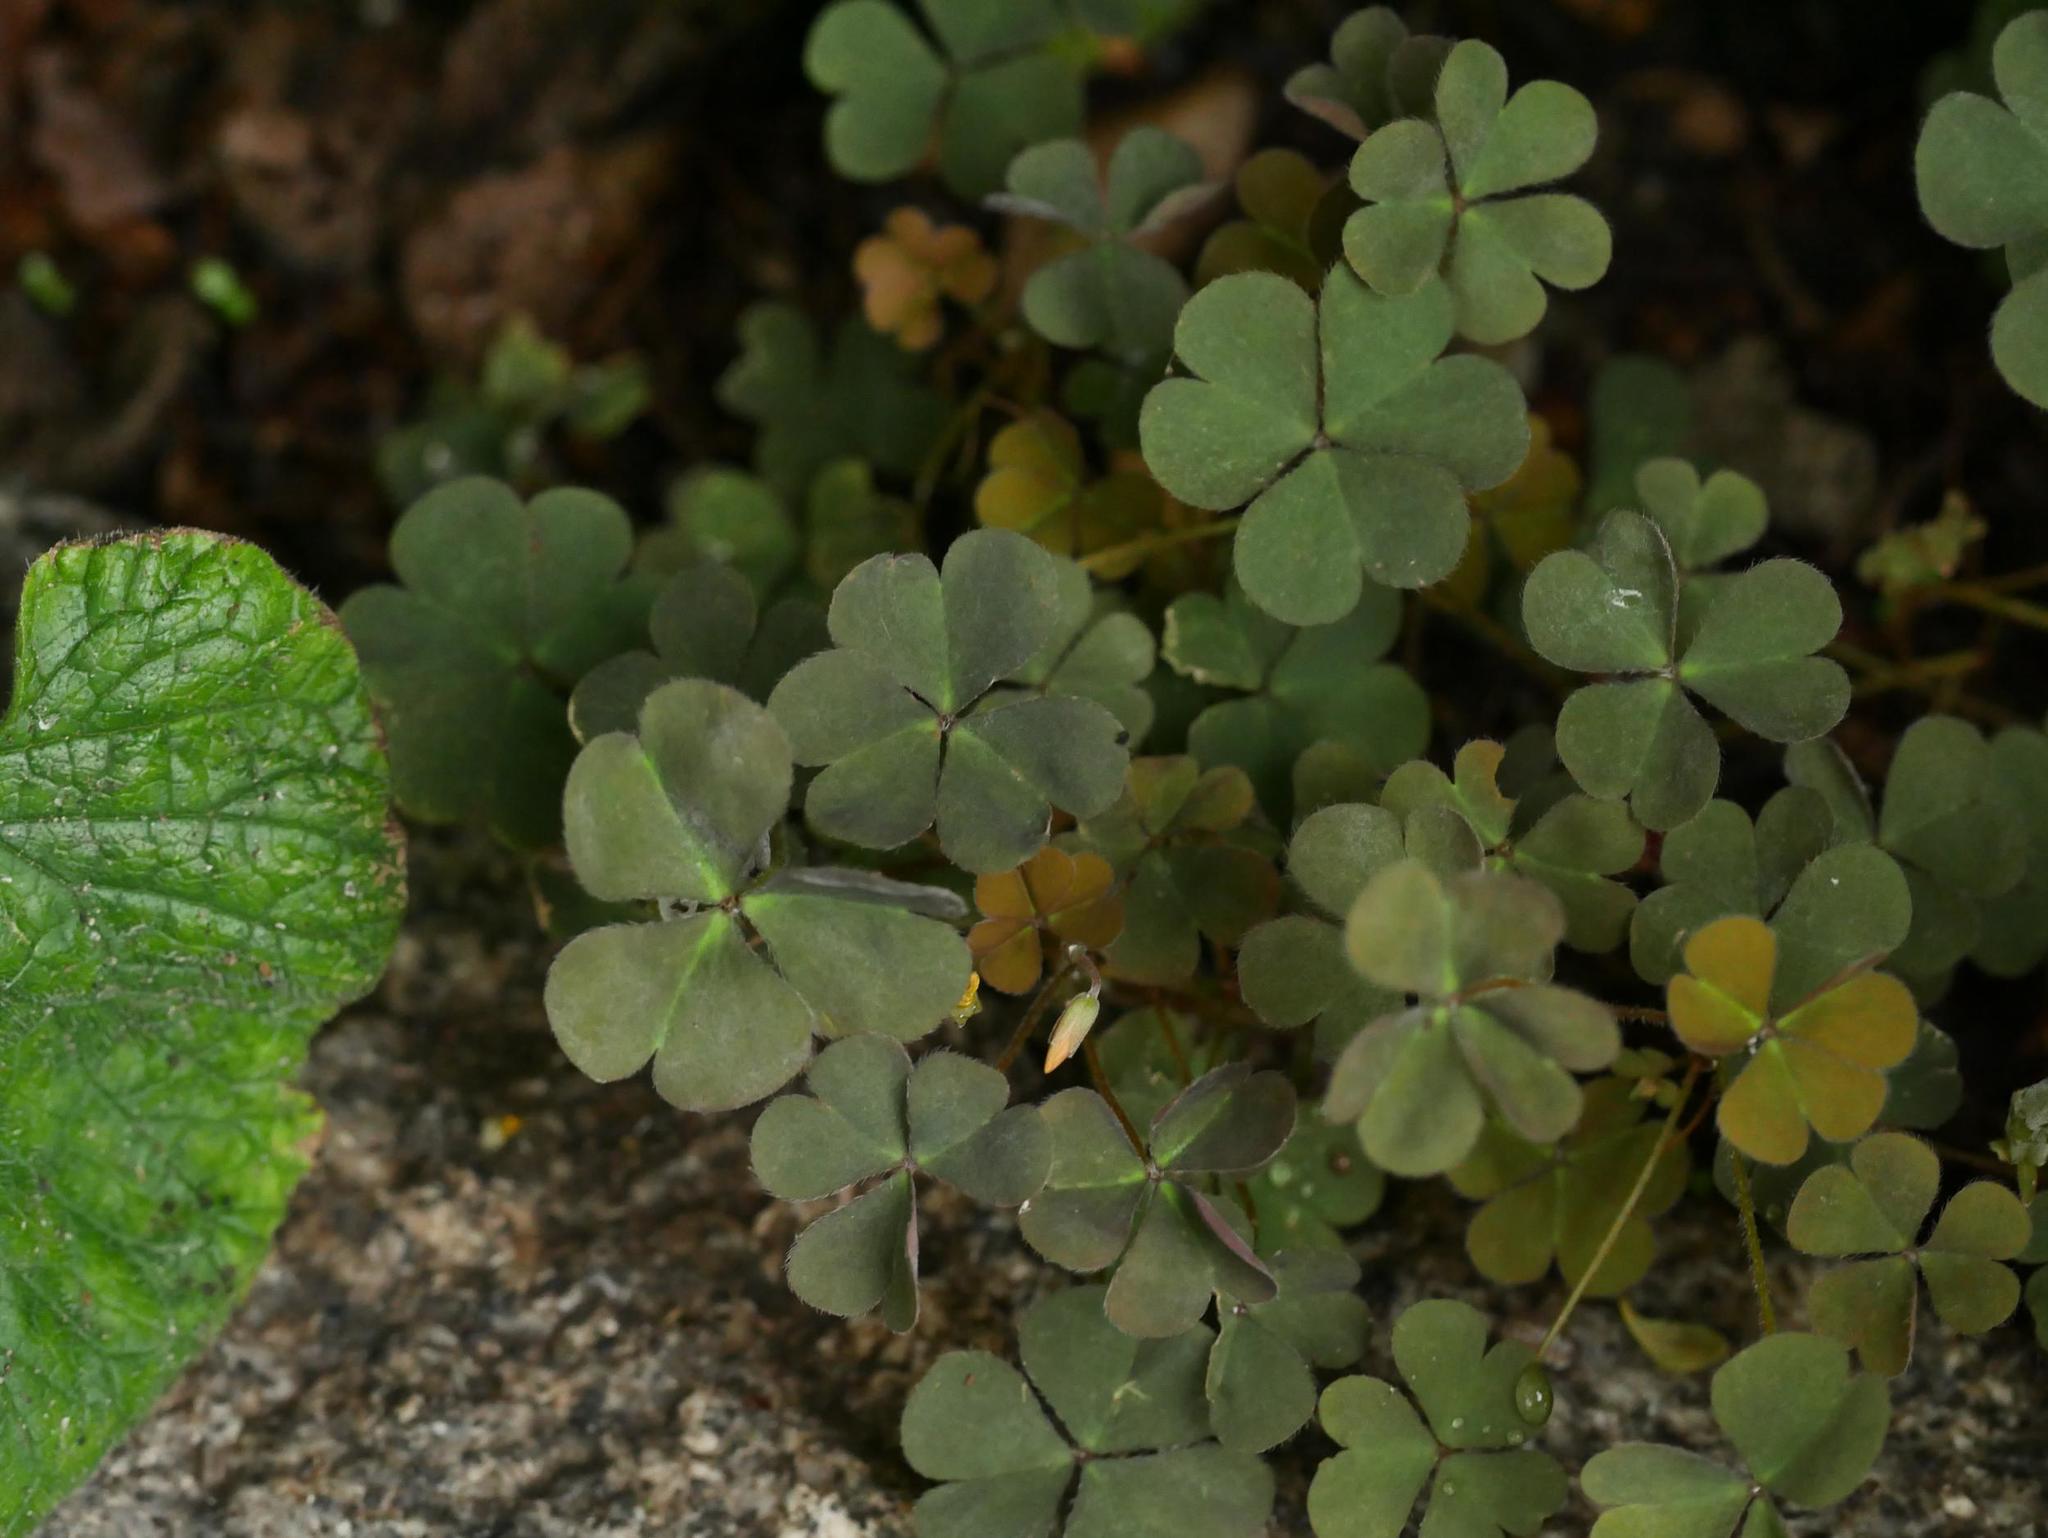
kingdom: Plantae
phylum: Tracheophyta
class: Magnoliopsida
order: Oxalidales
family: Oxalidaceae
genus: Oxalis
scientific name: Oxalis corniculata
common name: Procumbent yellow-sorrel
